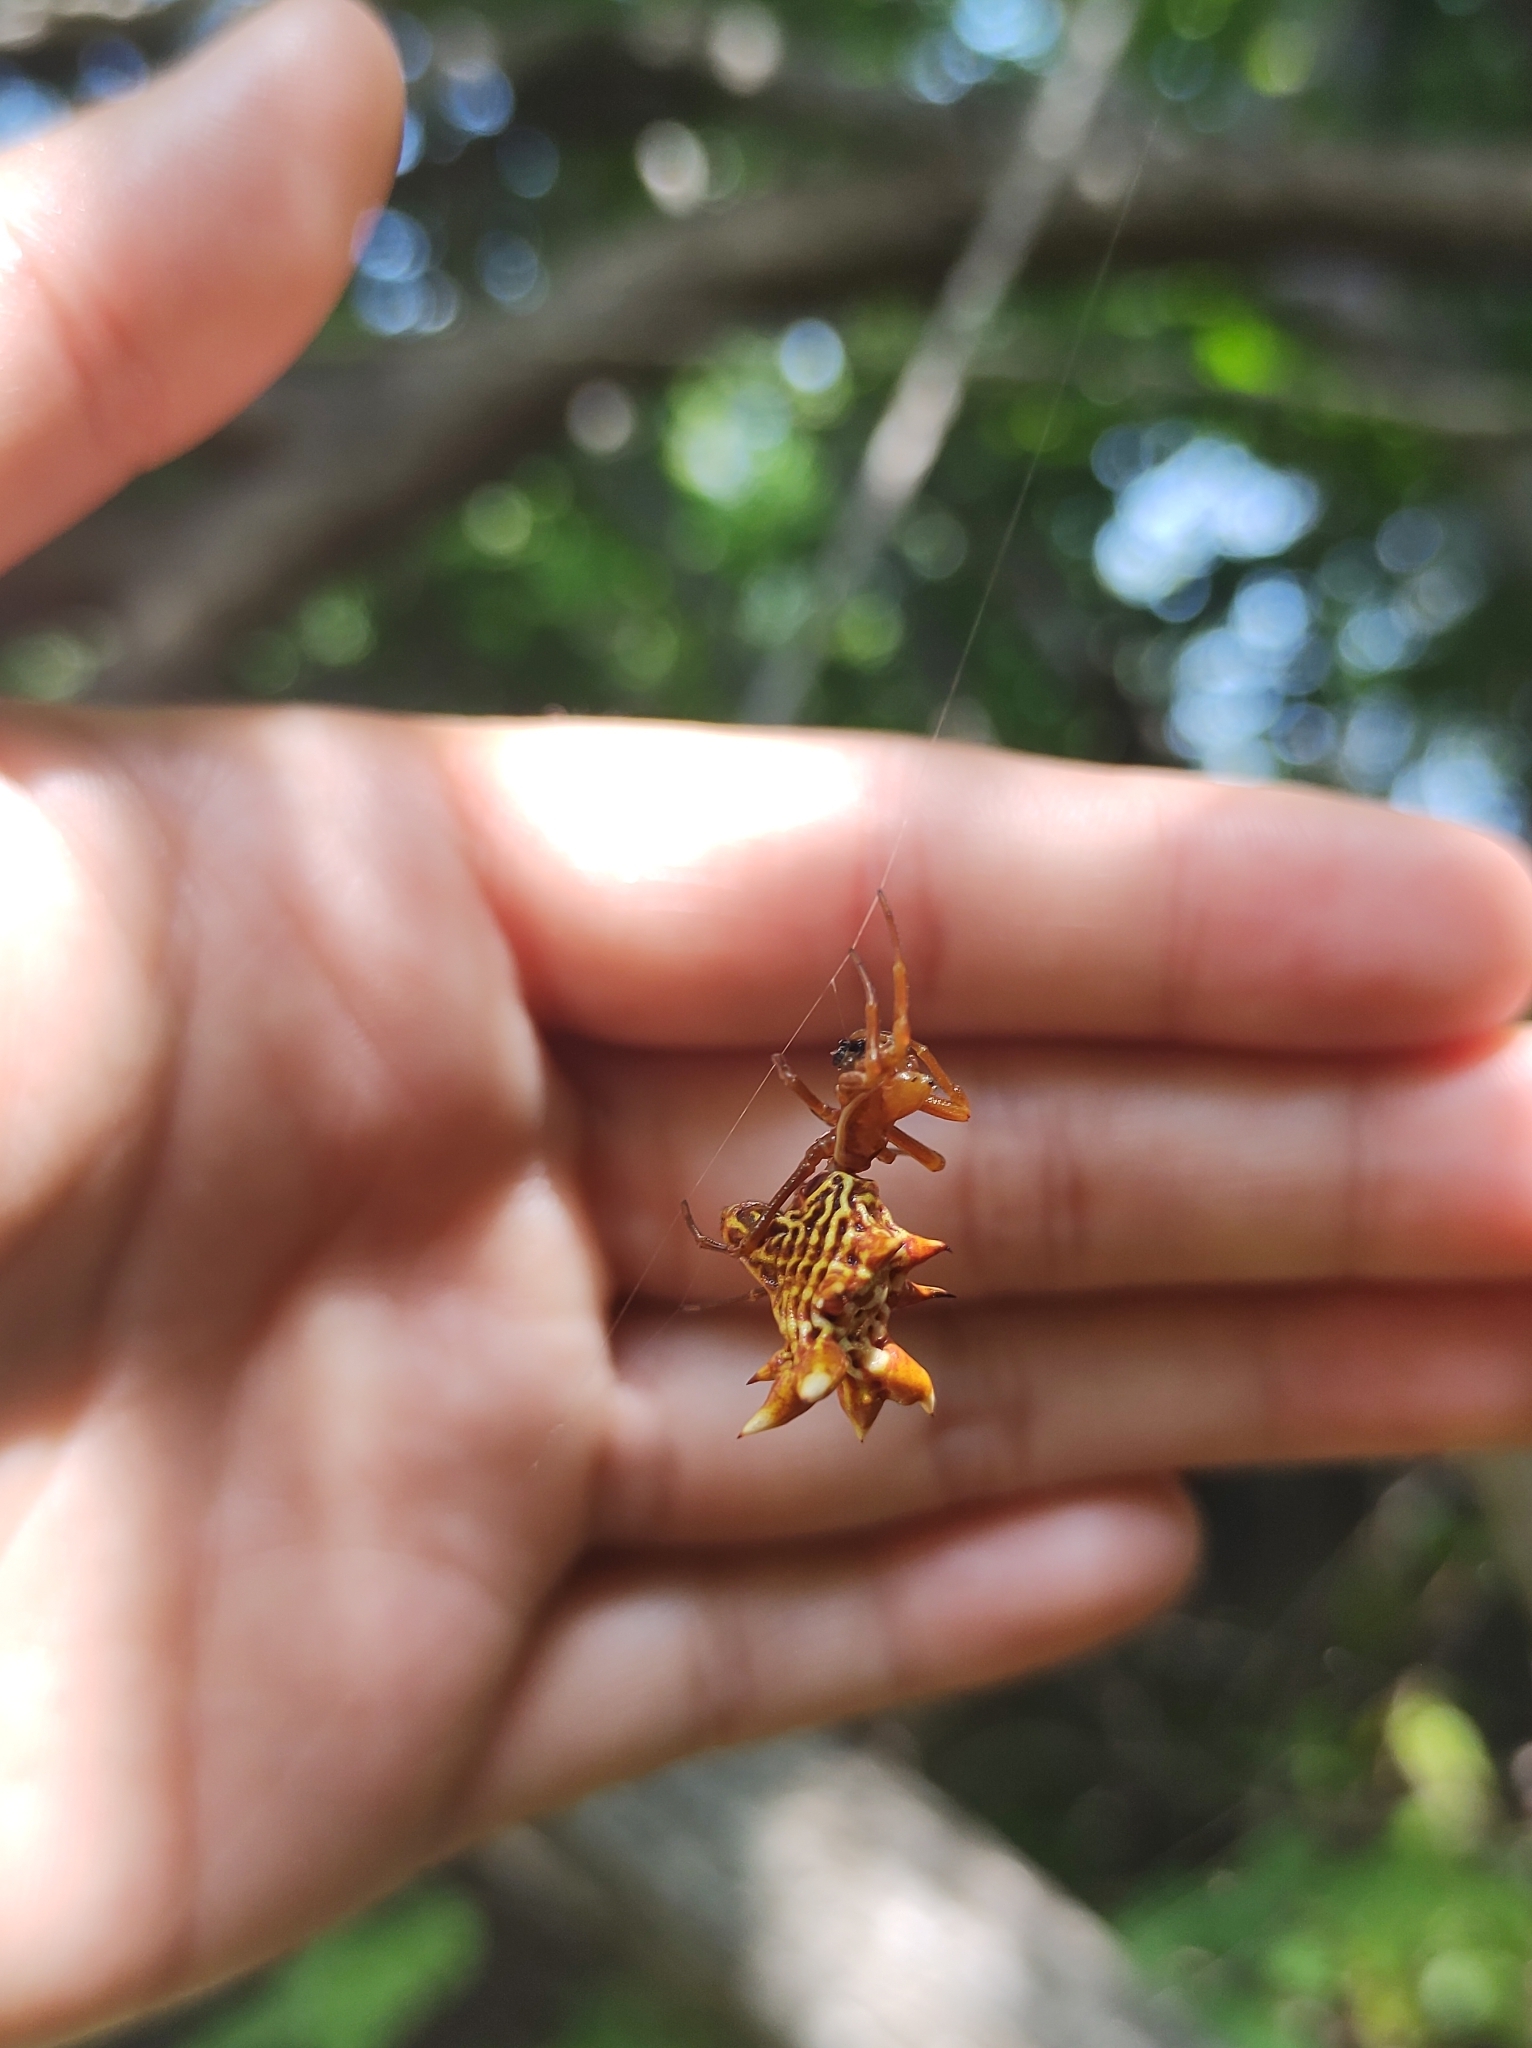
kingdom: Animalia
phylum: Arthropoda
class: Arachnida
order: Araneae
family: Araneidae
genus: Micrathena
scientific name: Micrathena gracilis
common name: Orb weavers
